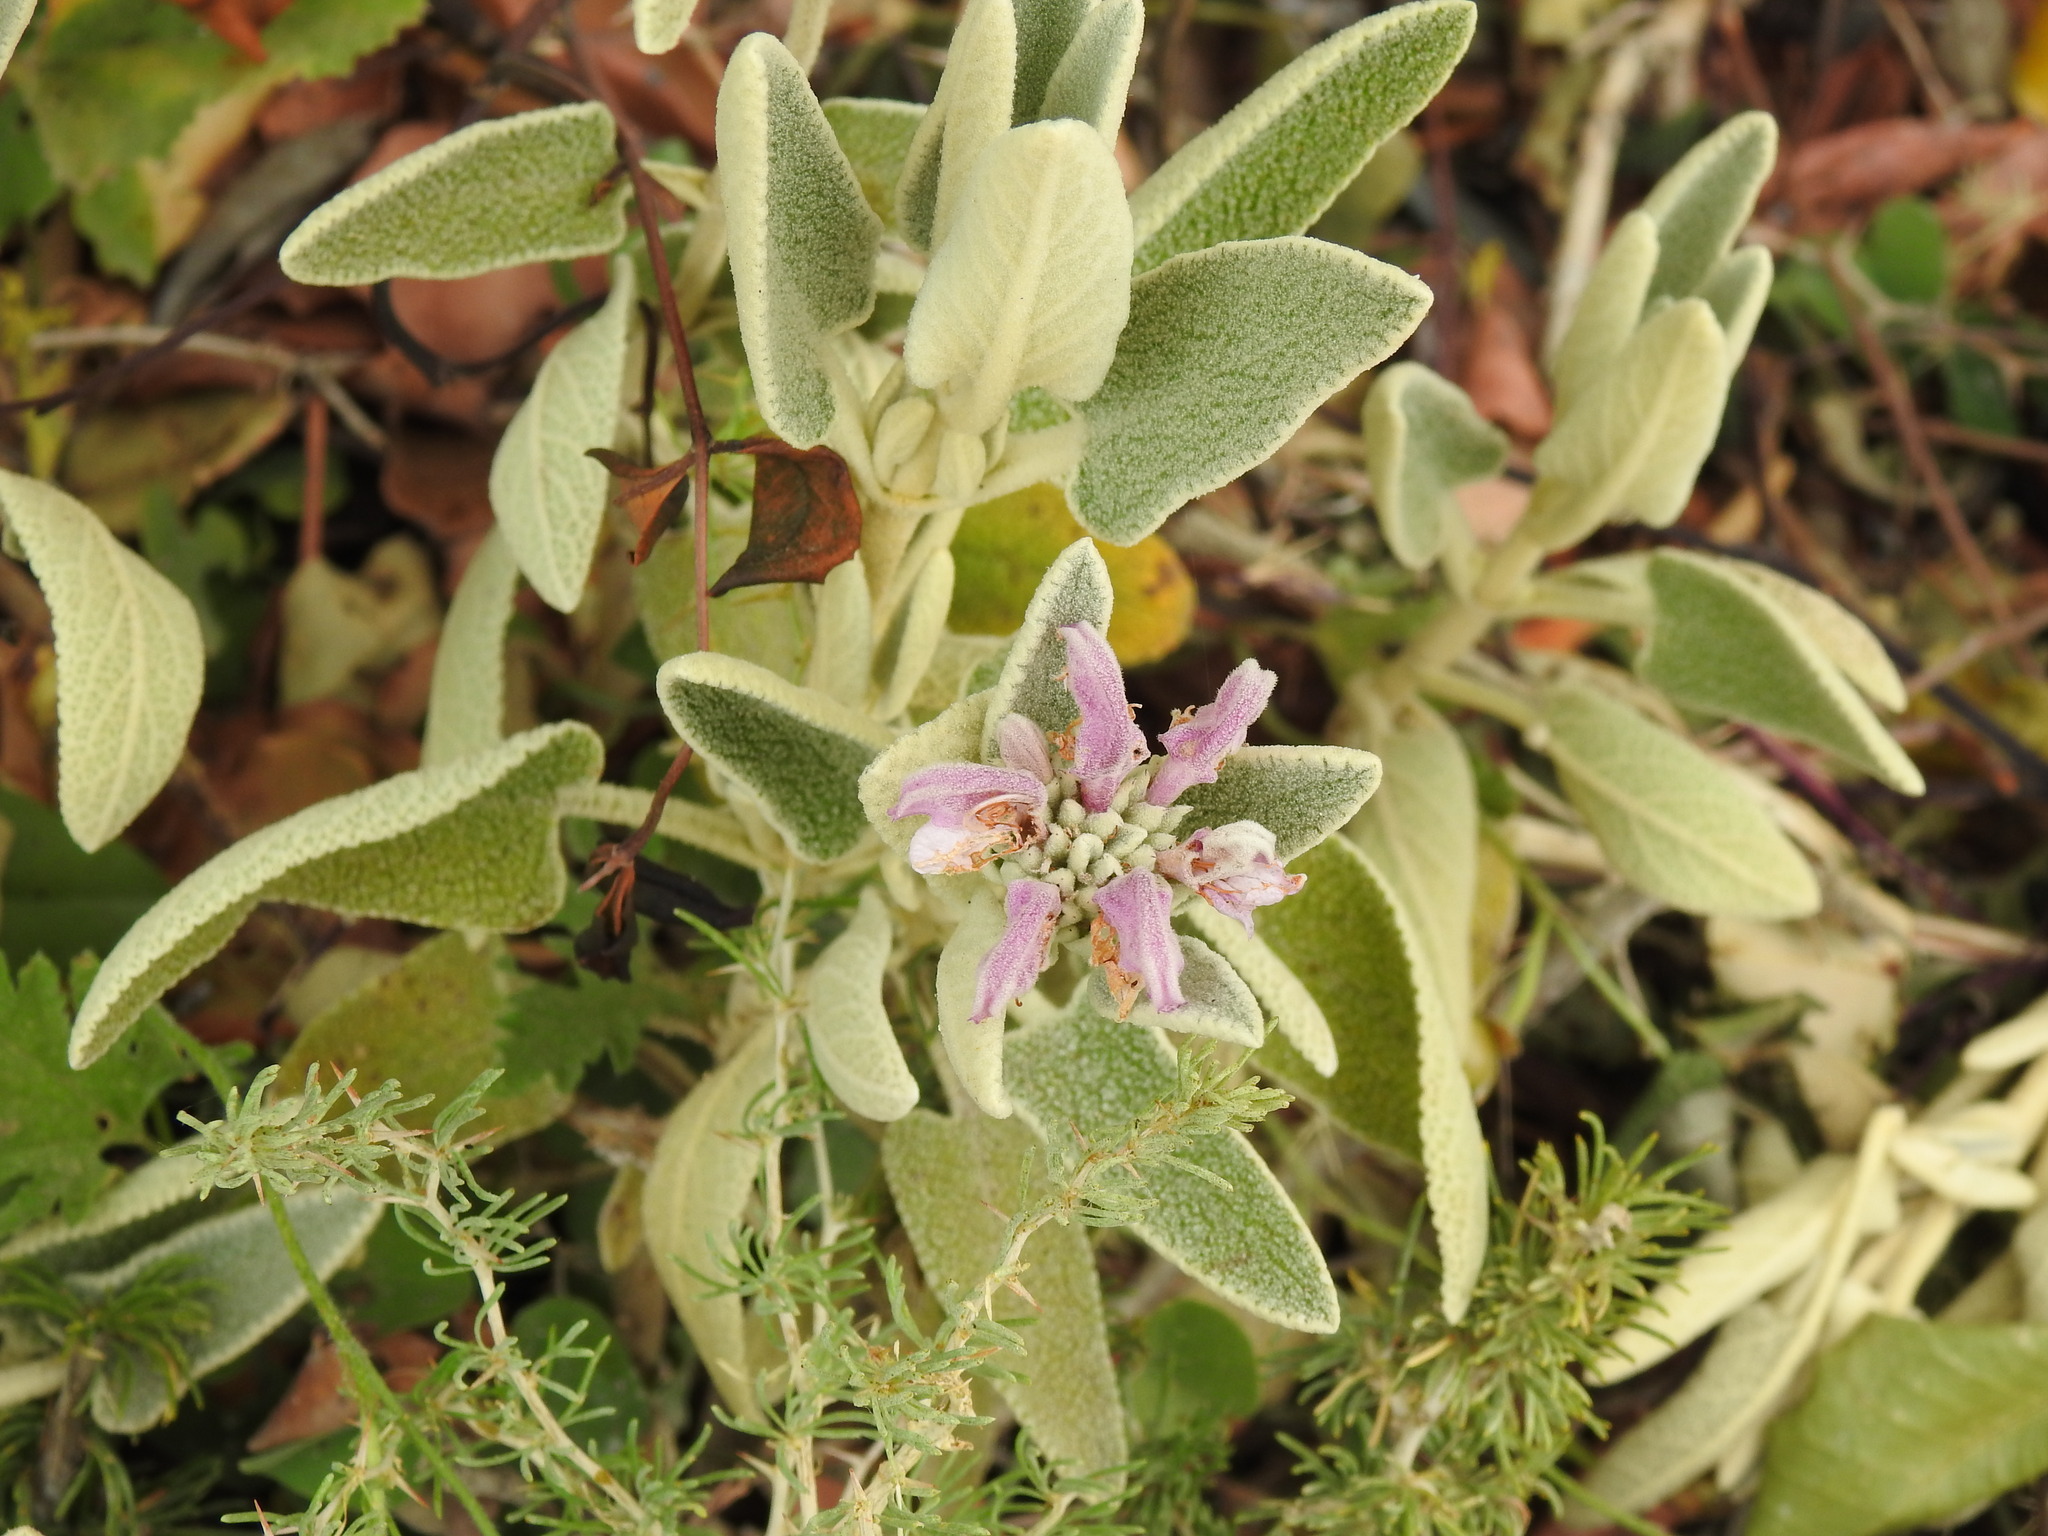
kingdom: Plantae
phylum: Tracheophyta
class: Magnoliopsida
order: Lamiales
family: Lamiaceae
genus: Phlomis
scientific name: Phlomis purpurea
